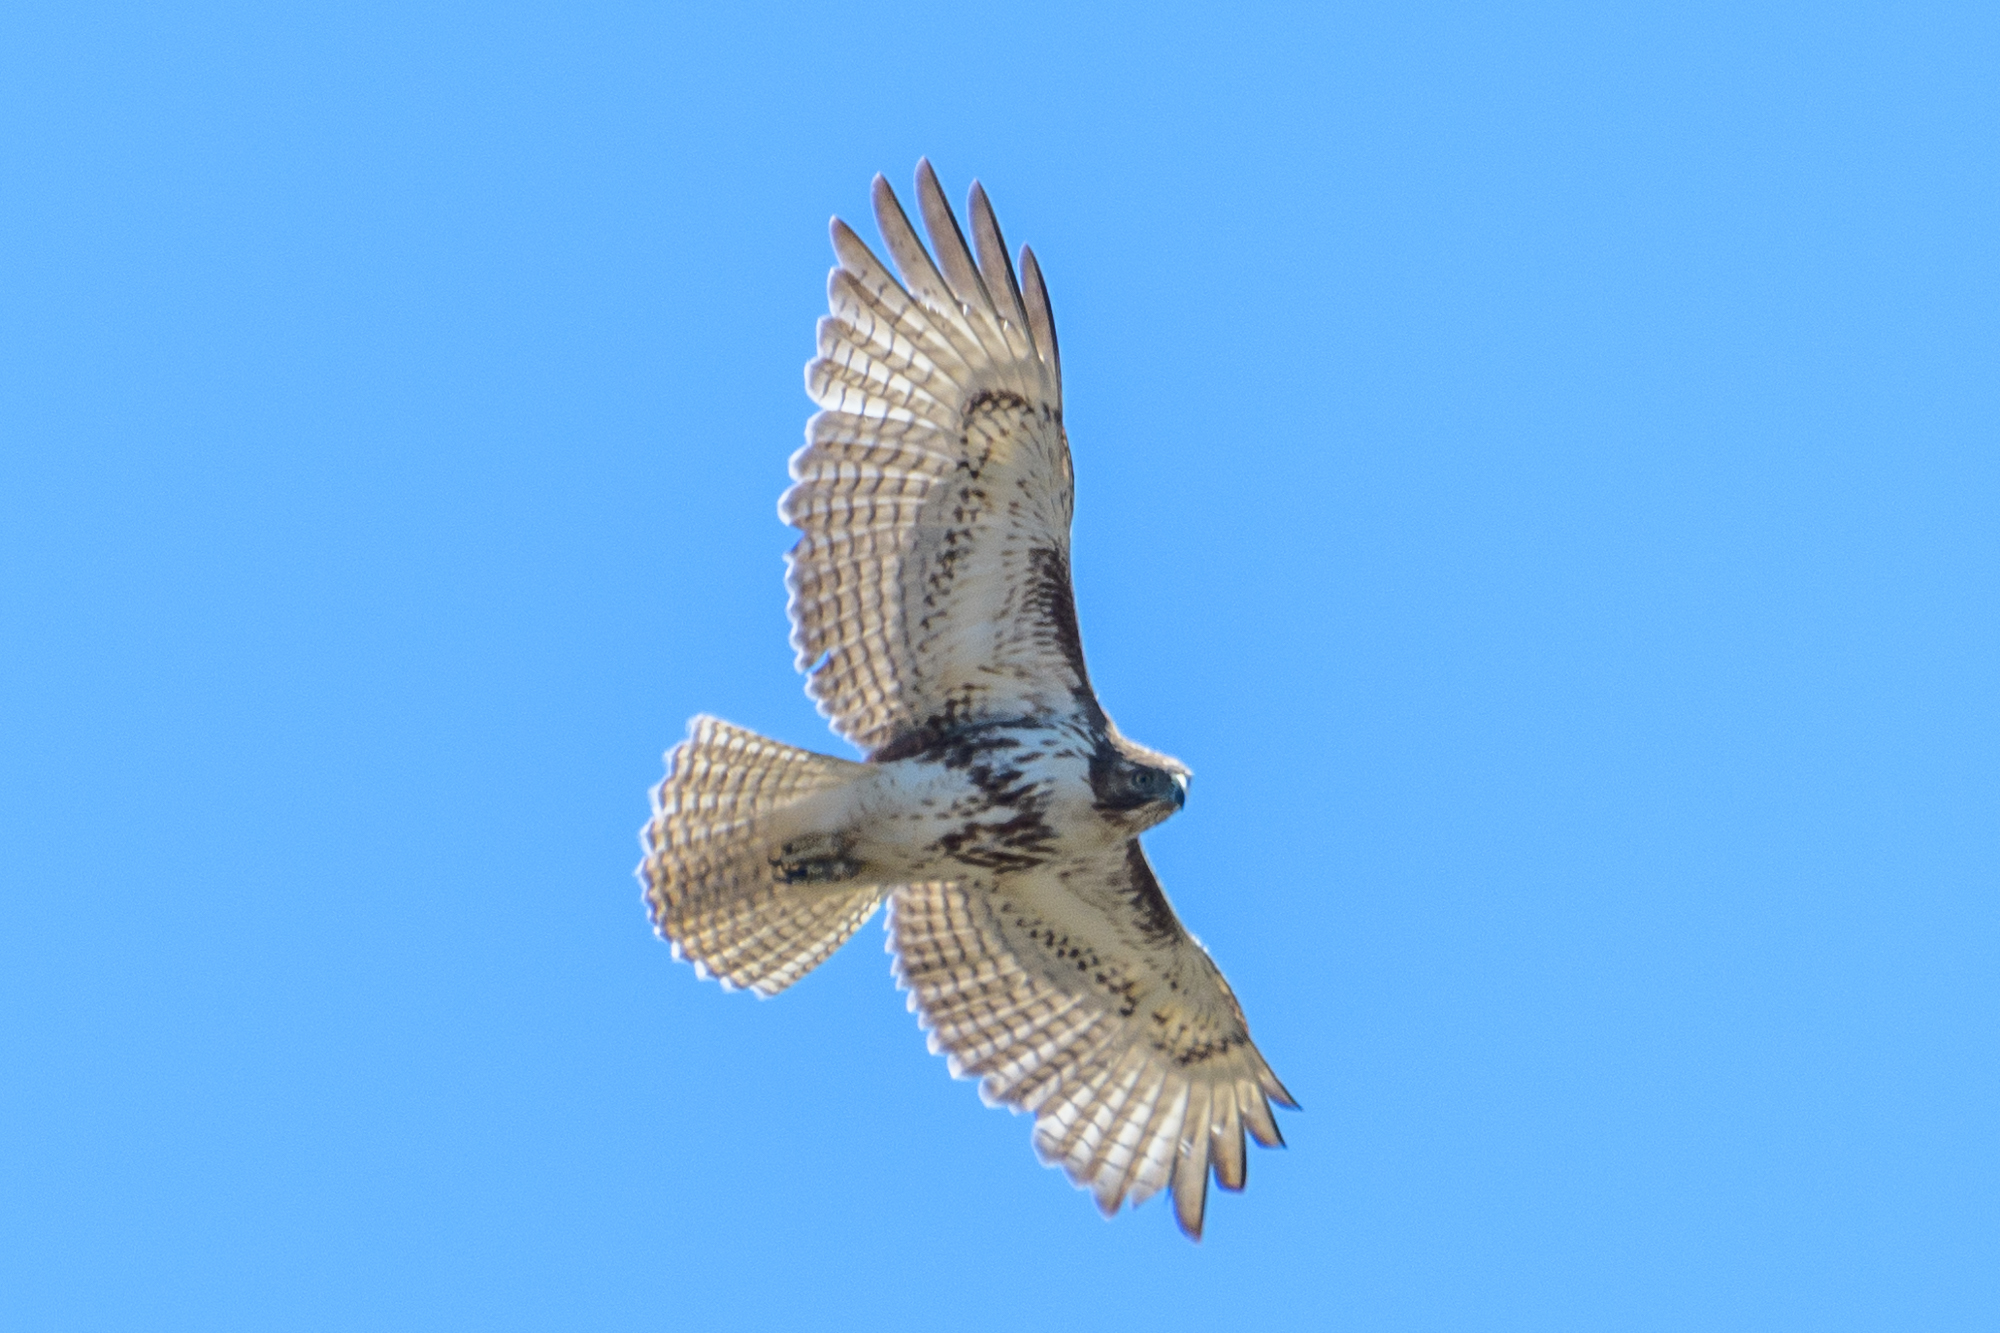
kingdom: Animalia
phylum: Chordata
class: Aves
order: Accipitriformes
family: Accipitridae
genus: Buteo
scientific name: Buteo jamaicensis
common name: Red-tailed hawk
